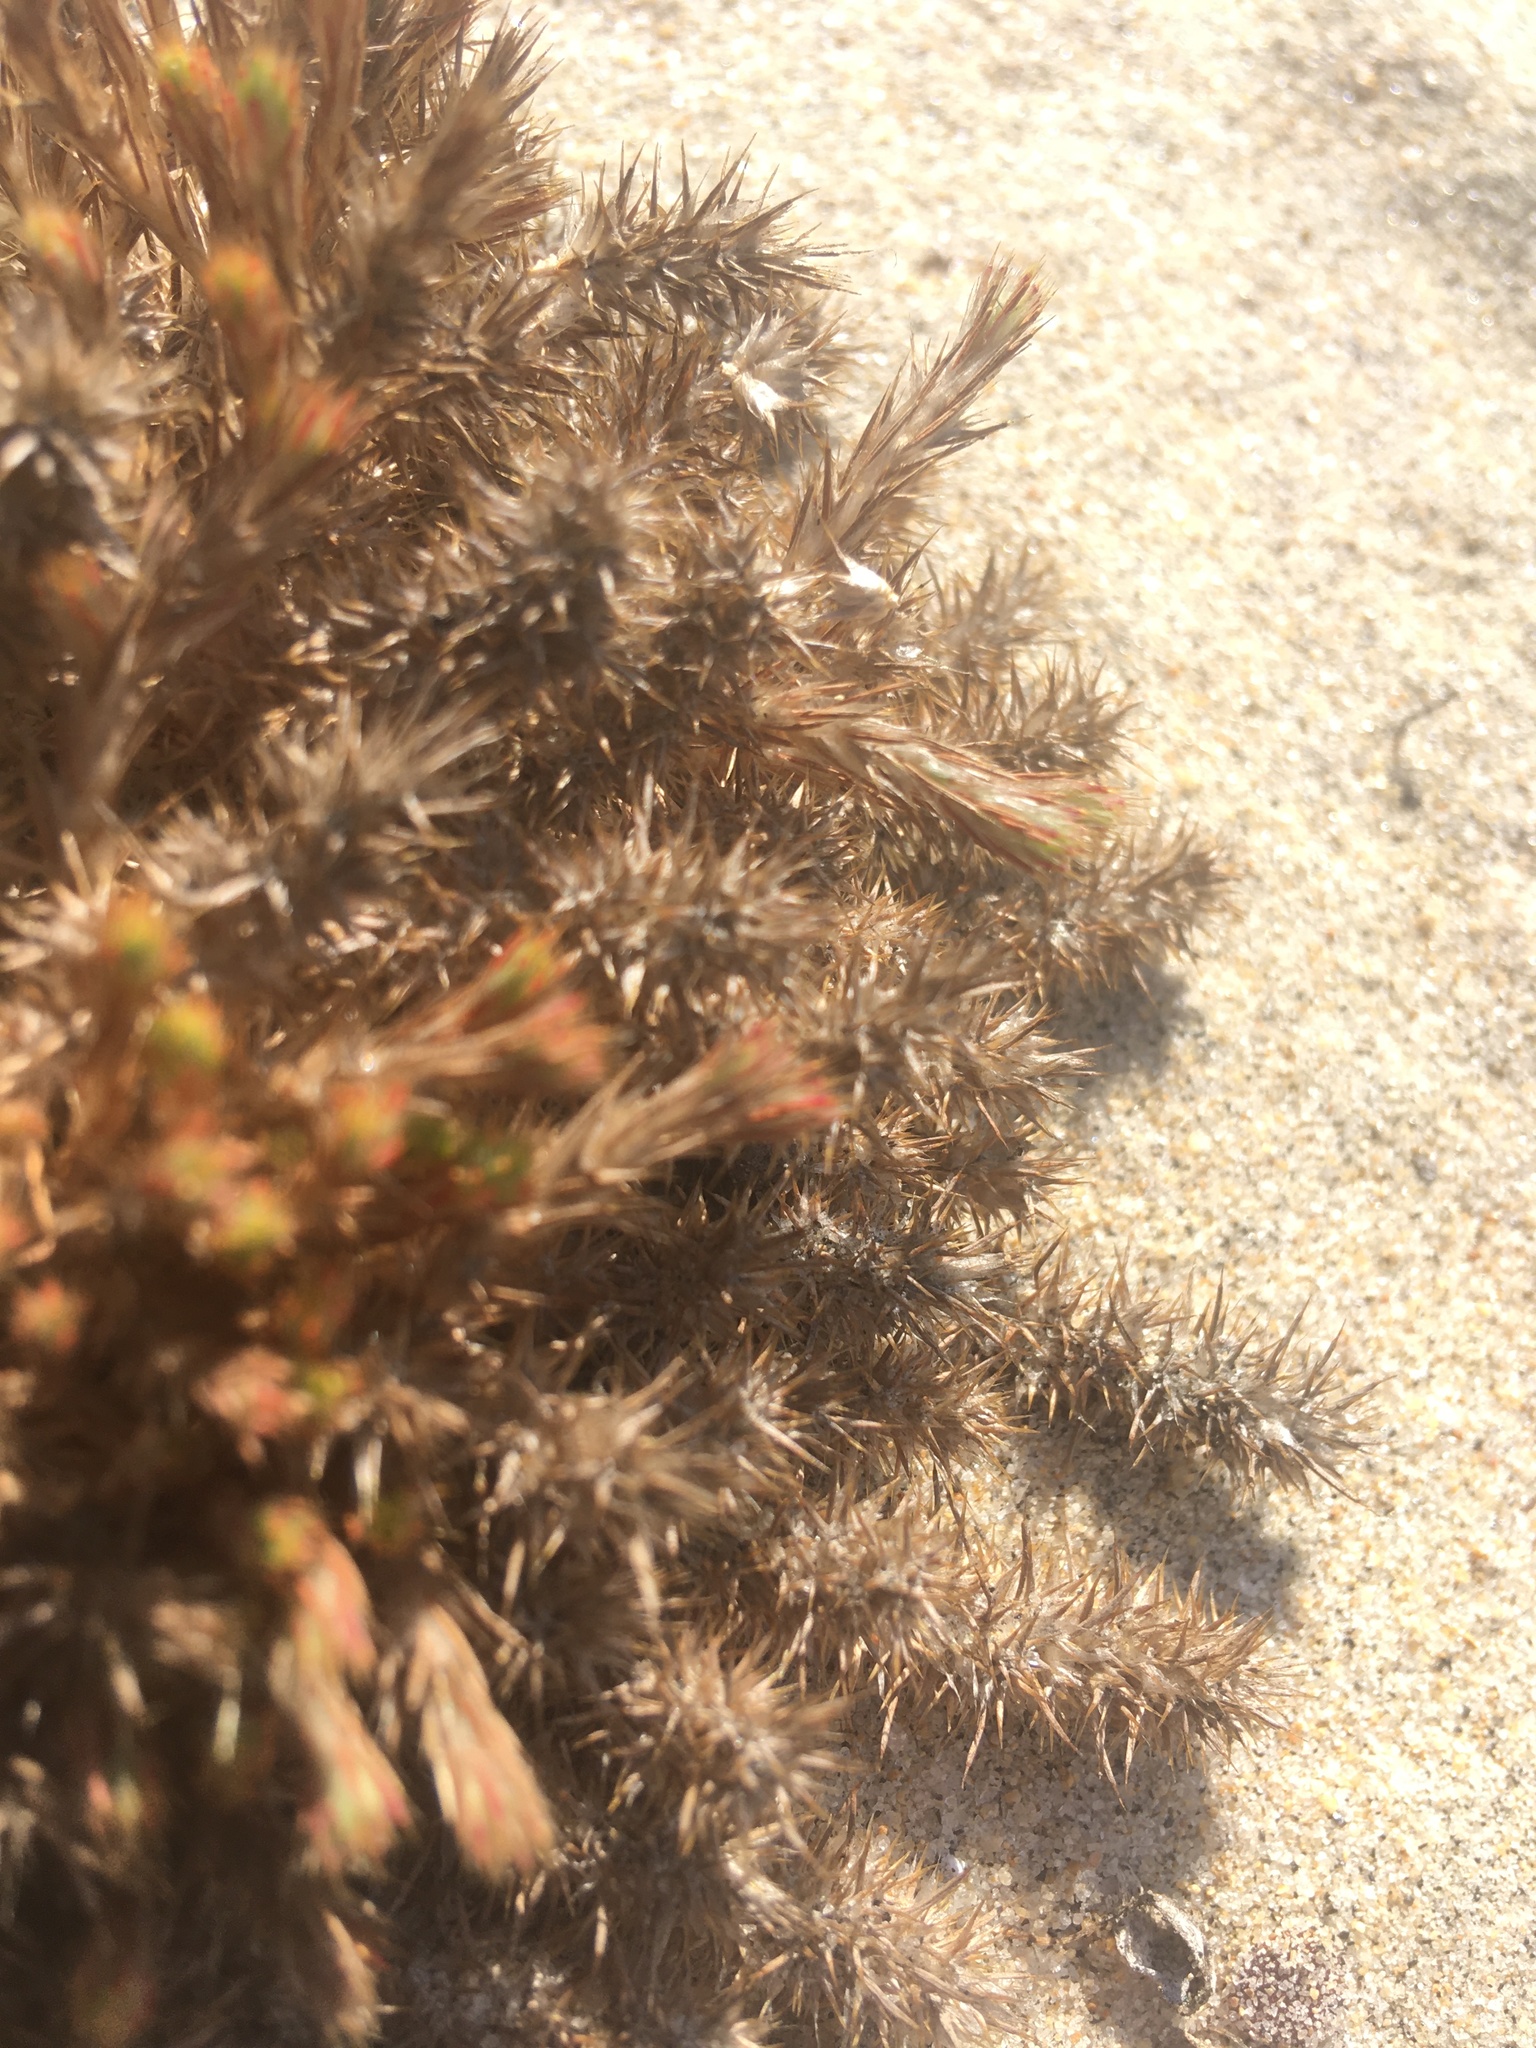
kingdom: Plantae
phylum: Tracheophyta
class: Magnoliopsida
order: Caryophyllales
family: Caryophyllaceae
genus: Cardionema
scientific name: Cardionema ramosissima
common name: Sandcarpet
